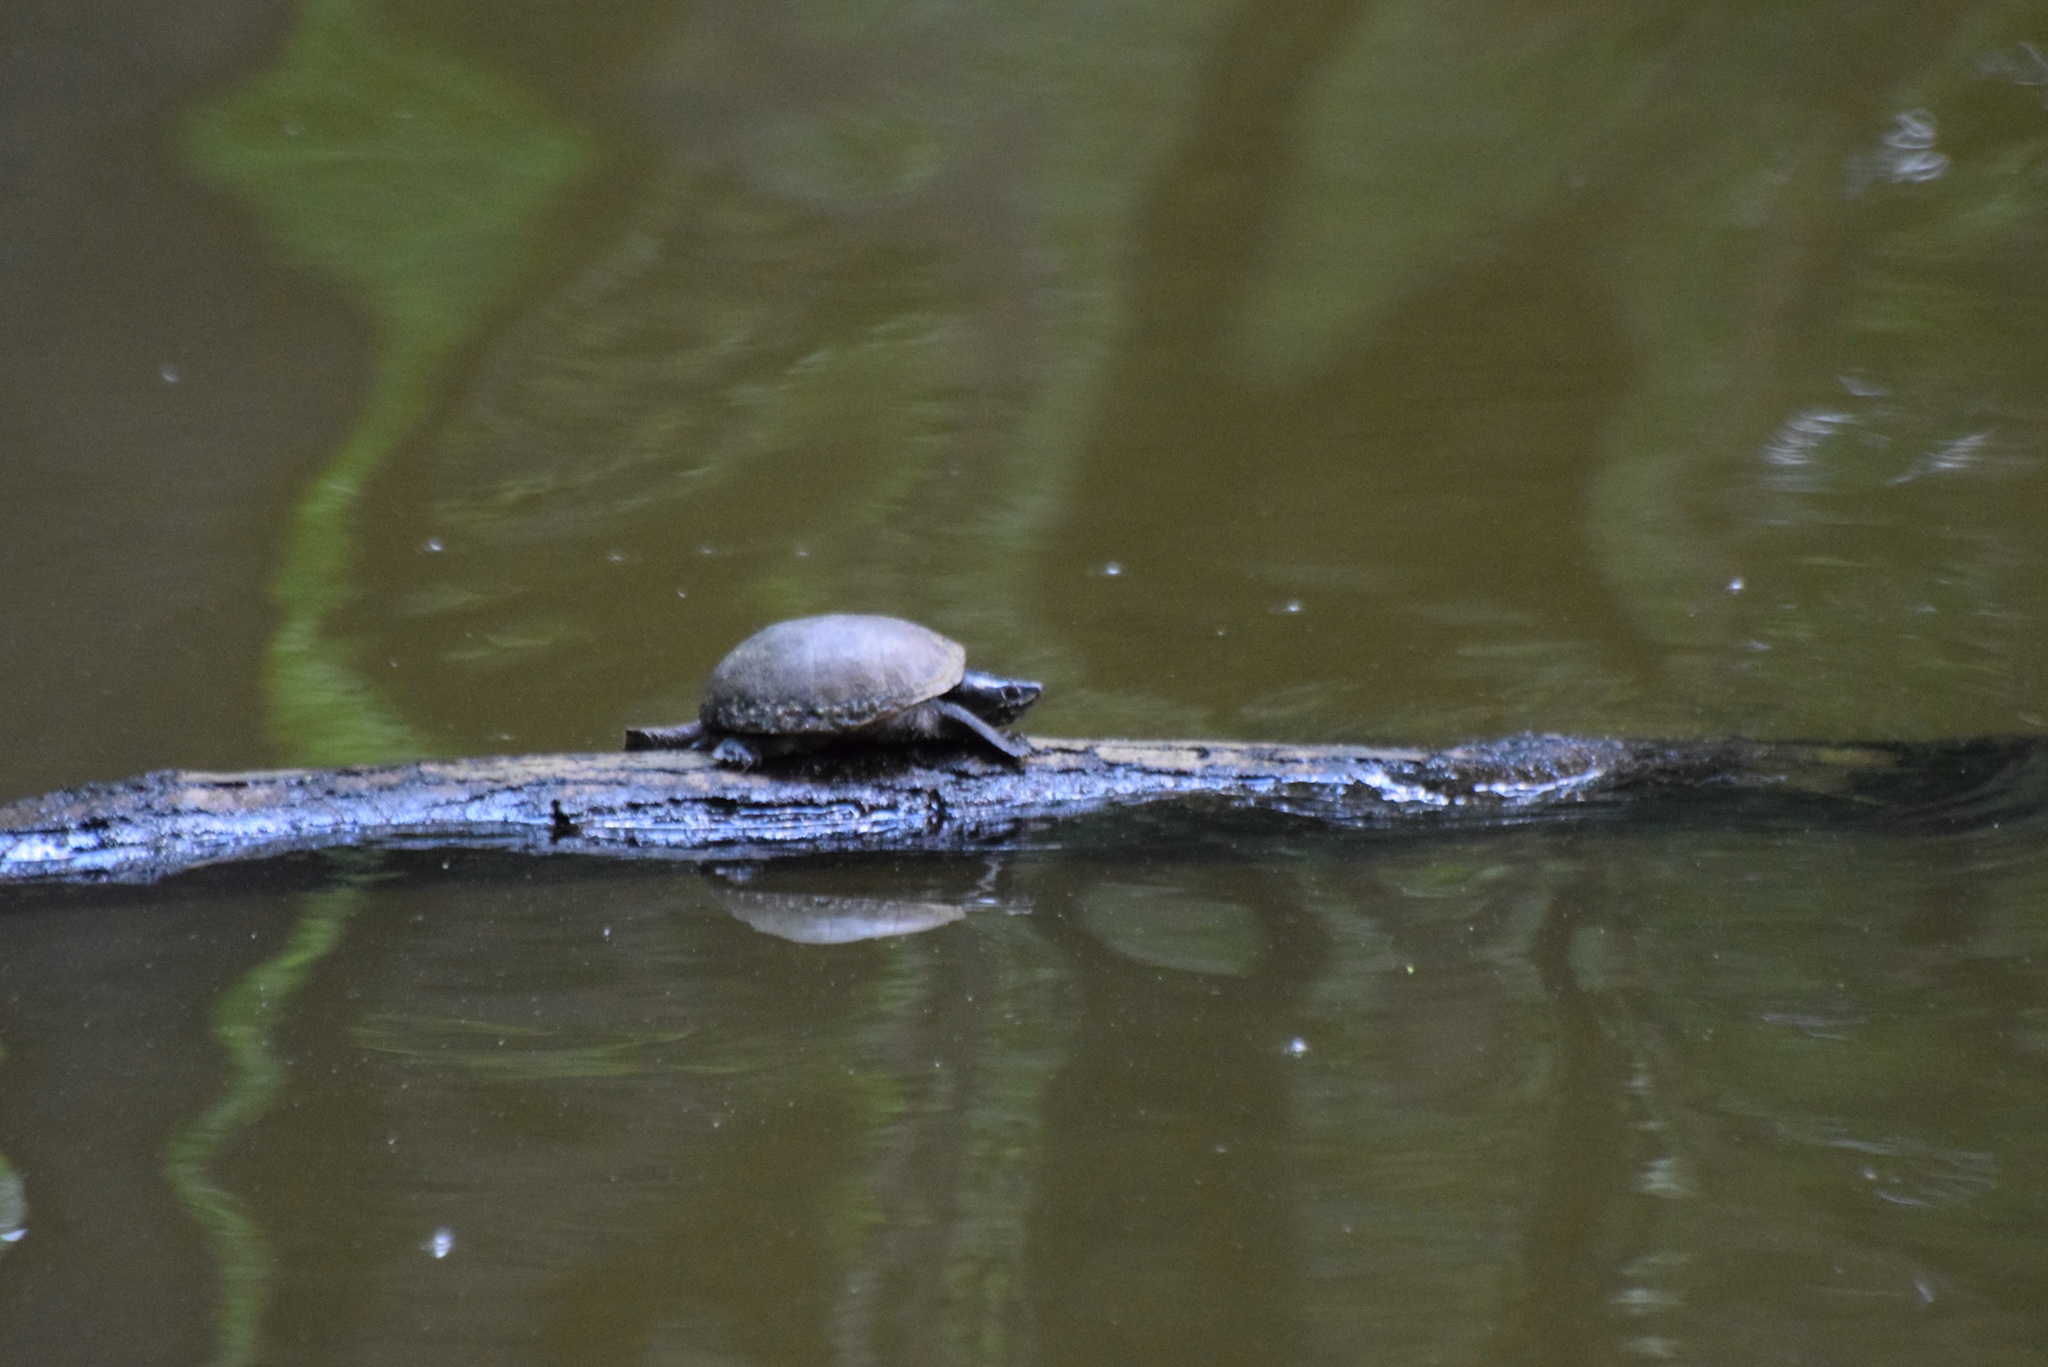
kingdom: Animalia
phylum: Chordata
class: Testudines
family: Kinosternidae
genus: Sternotherus
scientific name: Sternotherus odoratus
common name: Common musk turtle
